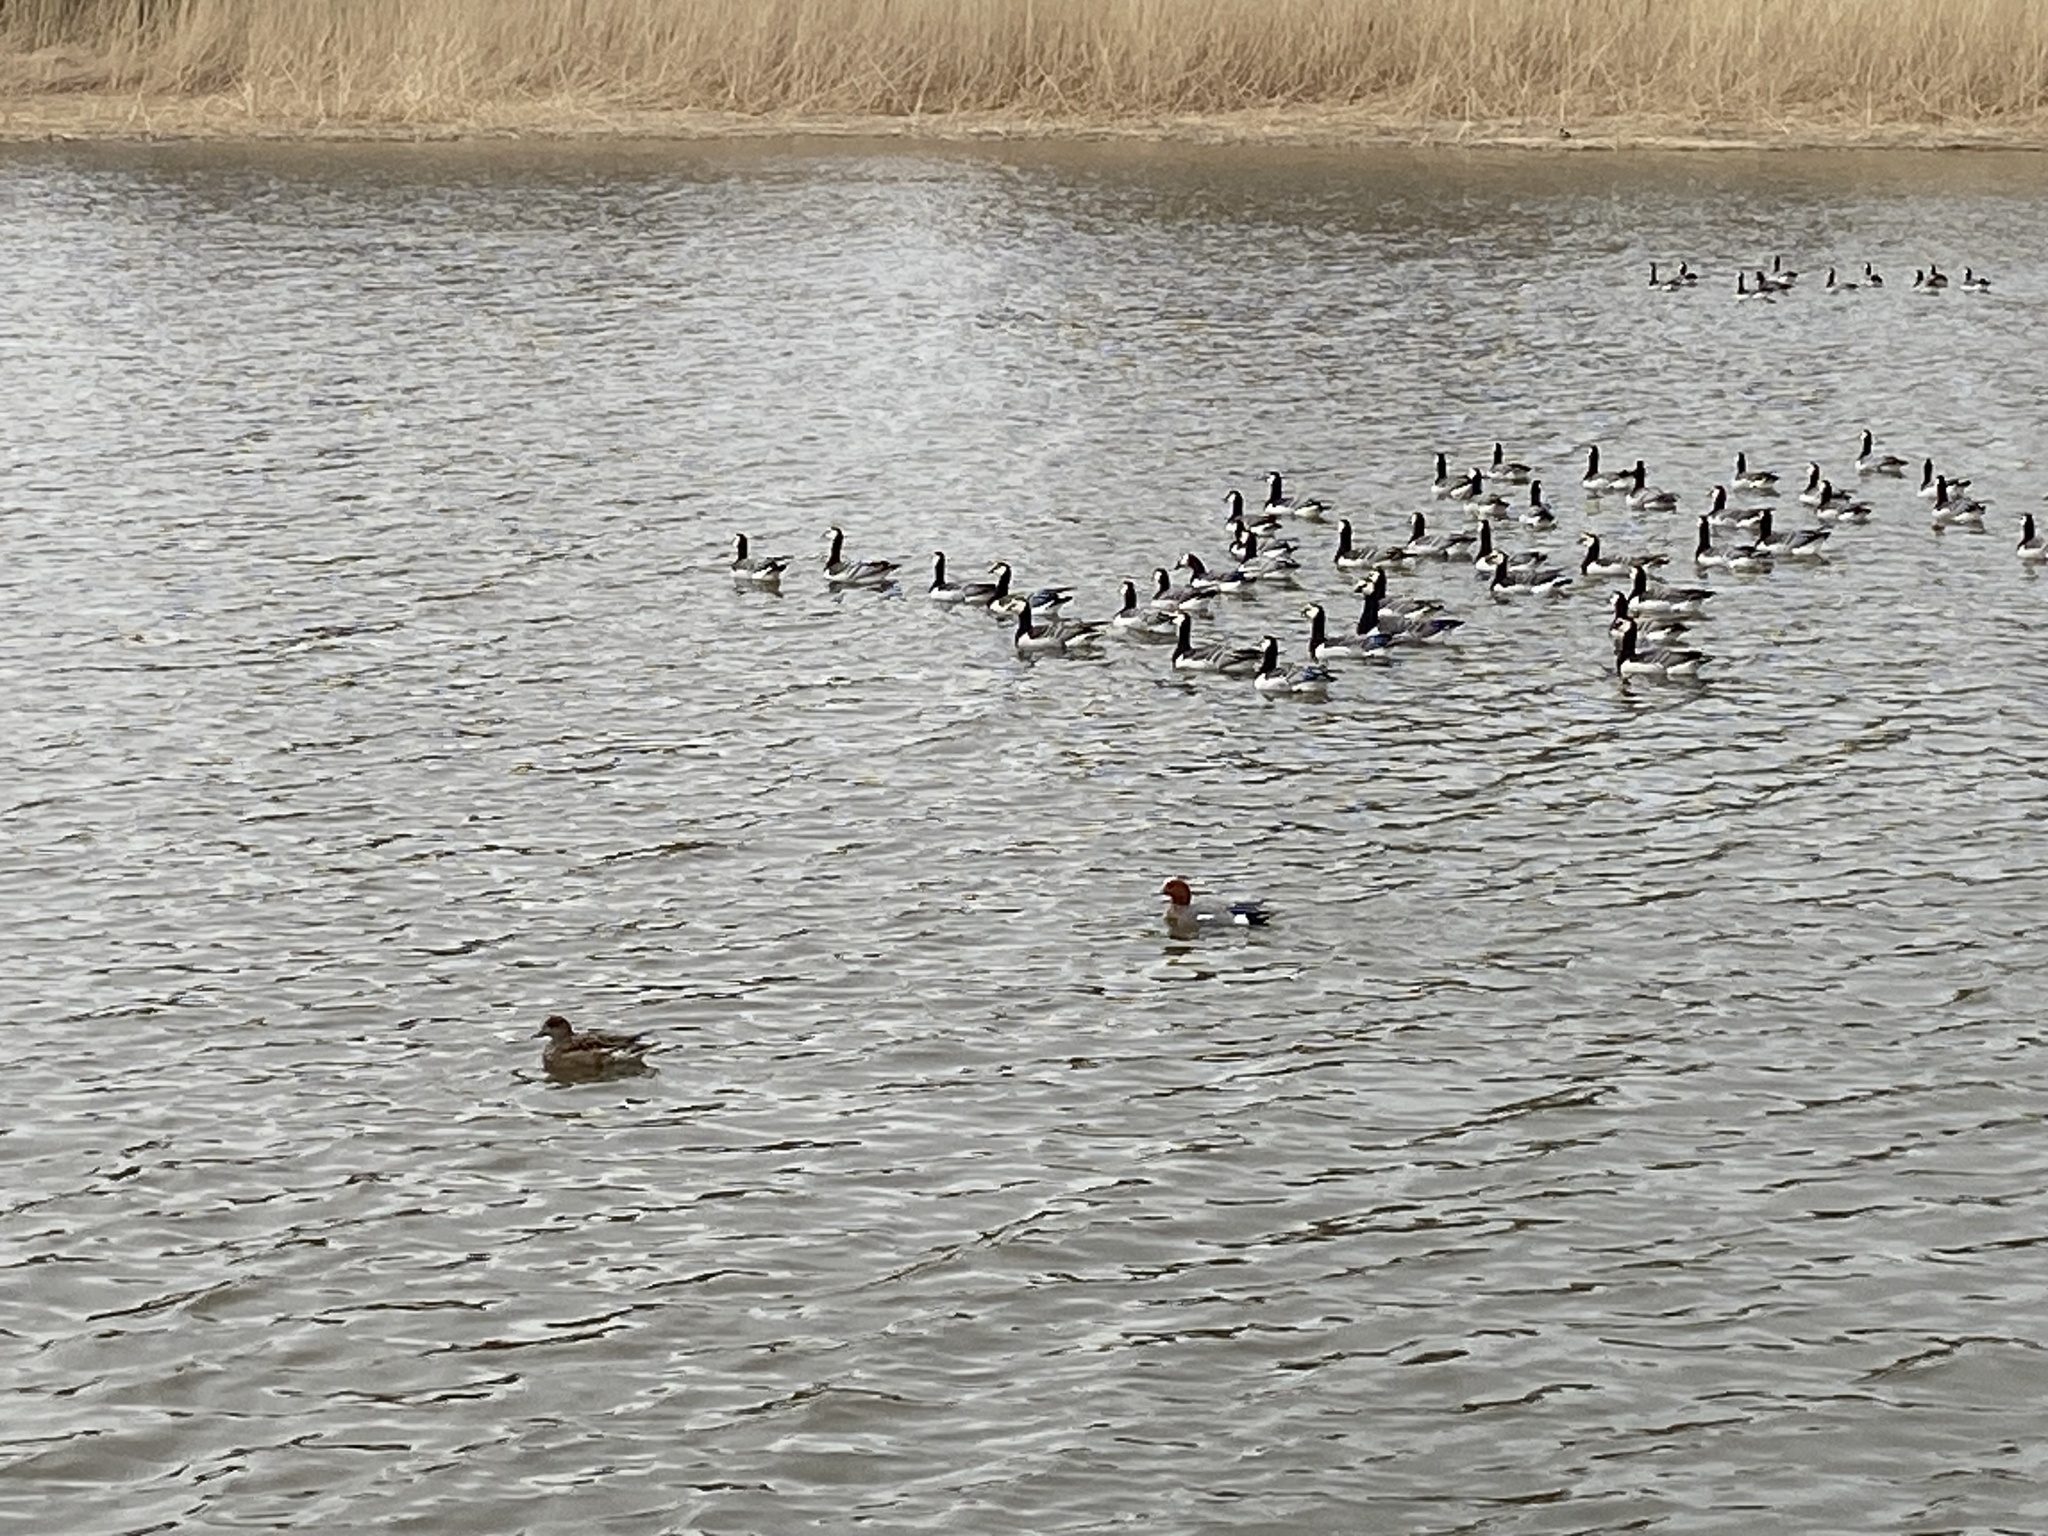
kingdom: Animalia
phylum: Chordata
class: Aves
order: Anseriformes
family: Anatidae
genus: Mareca
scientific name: Mareca penelope
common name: Eurasian wigeon
